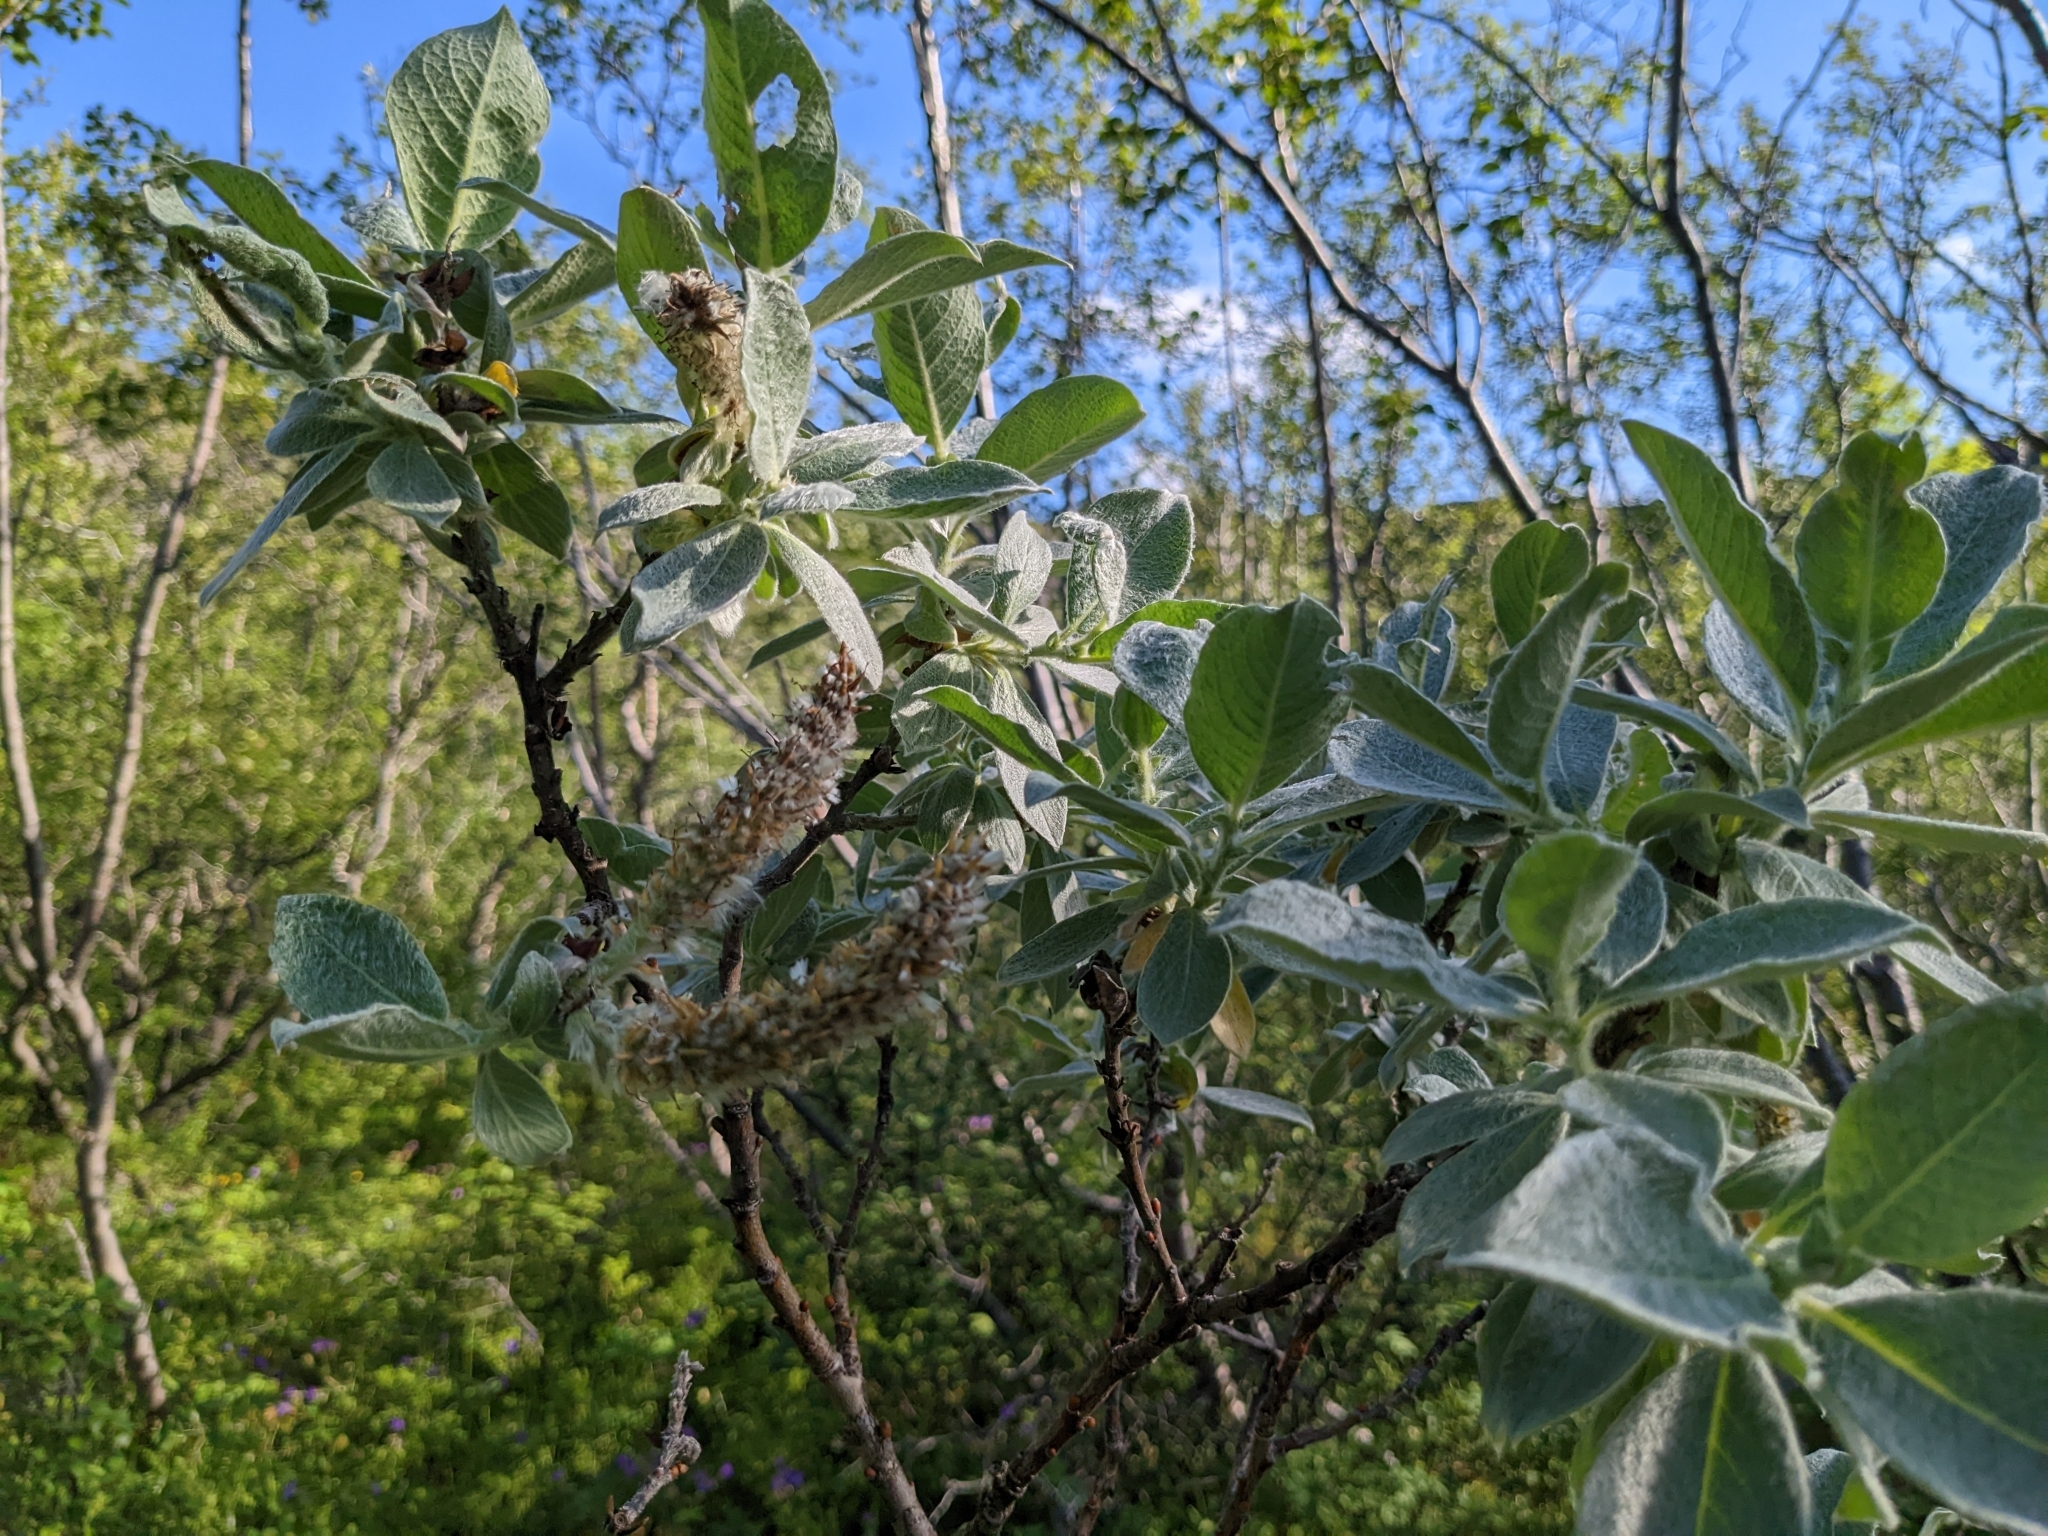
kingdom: Plantae
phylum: Tracheophyta
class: Magnoliopsida
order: Malpighiales
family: Salicaceae
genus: Salix
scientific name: Salix lanata
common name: Woolly willow
